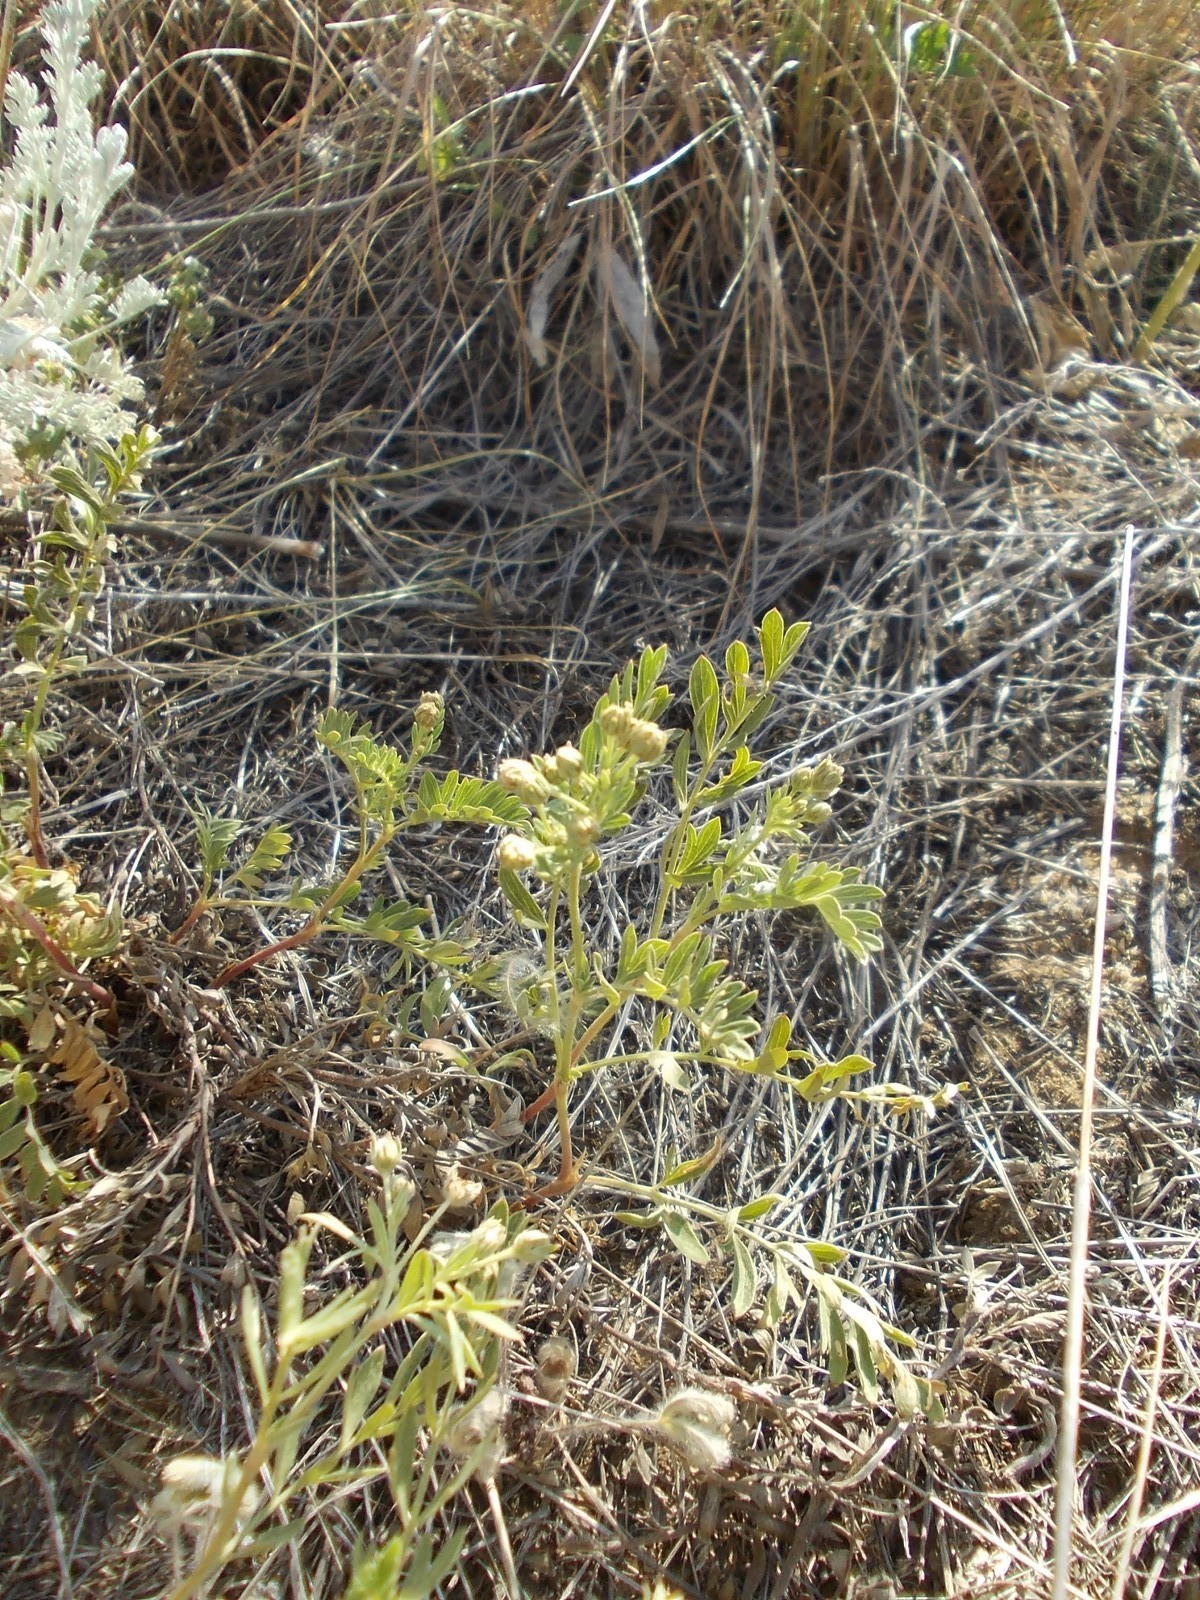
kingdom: Plantae
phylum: Tracheophyta
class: Magnoliopsida
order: Rosales
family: Rosaceae
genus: Sibbaldianthe
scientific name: Sibbaldianthe bifurca
